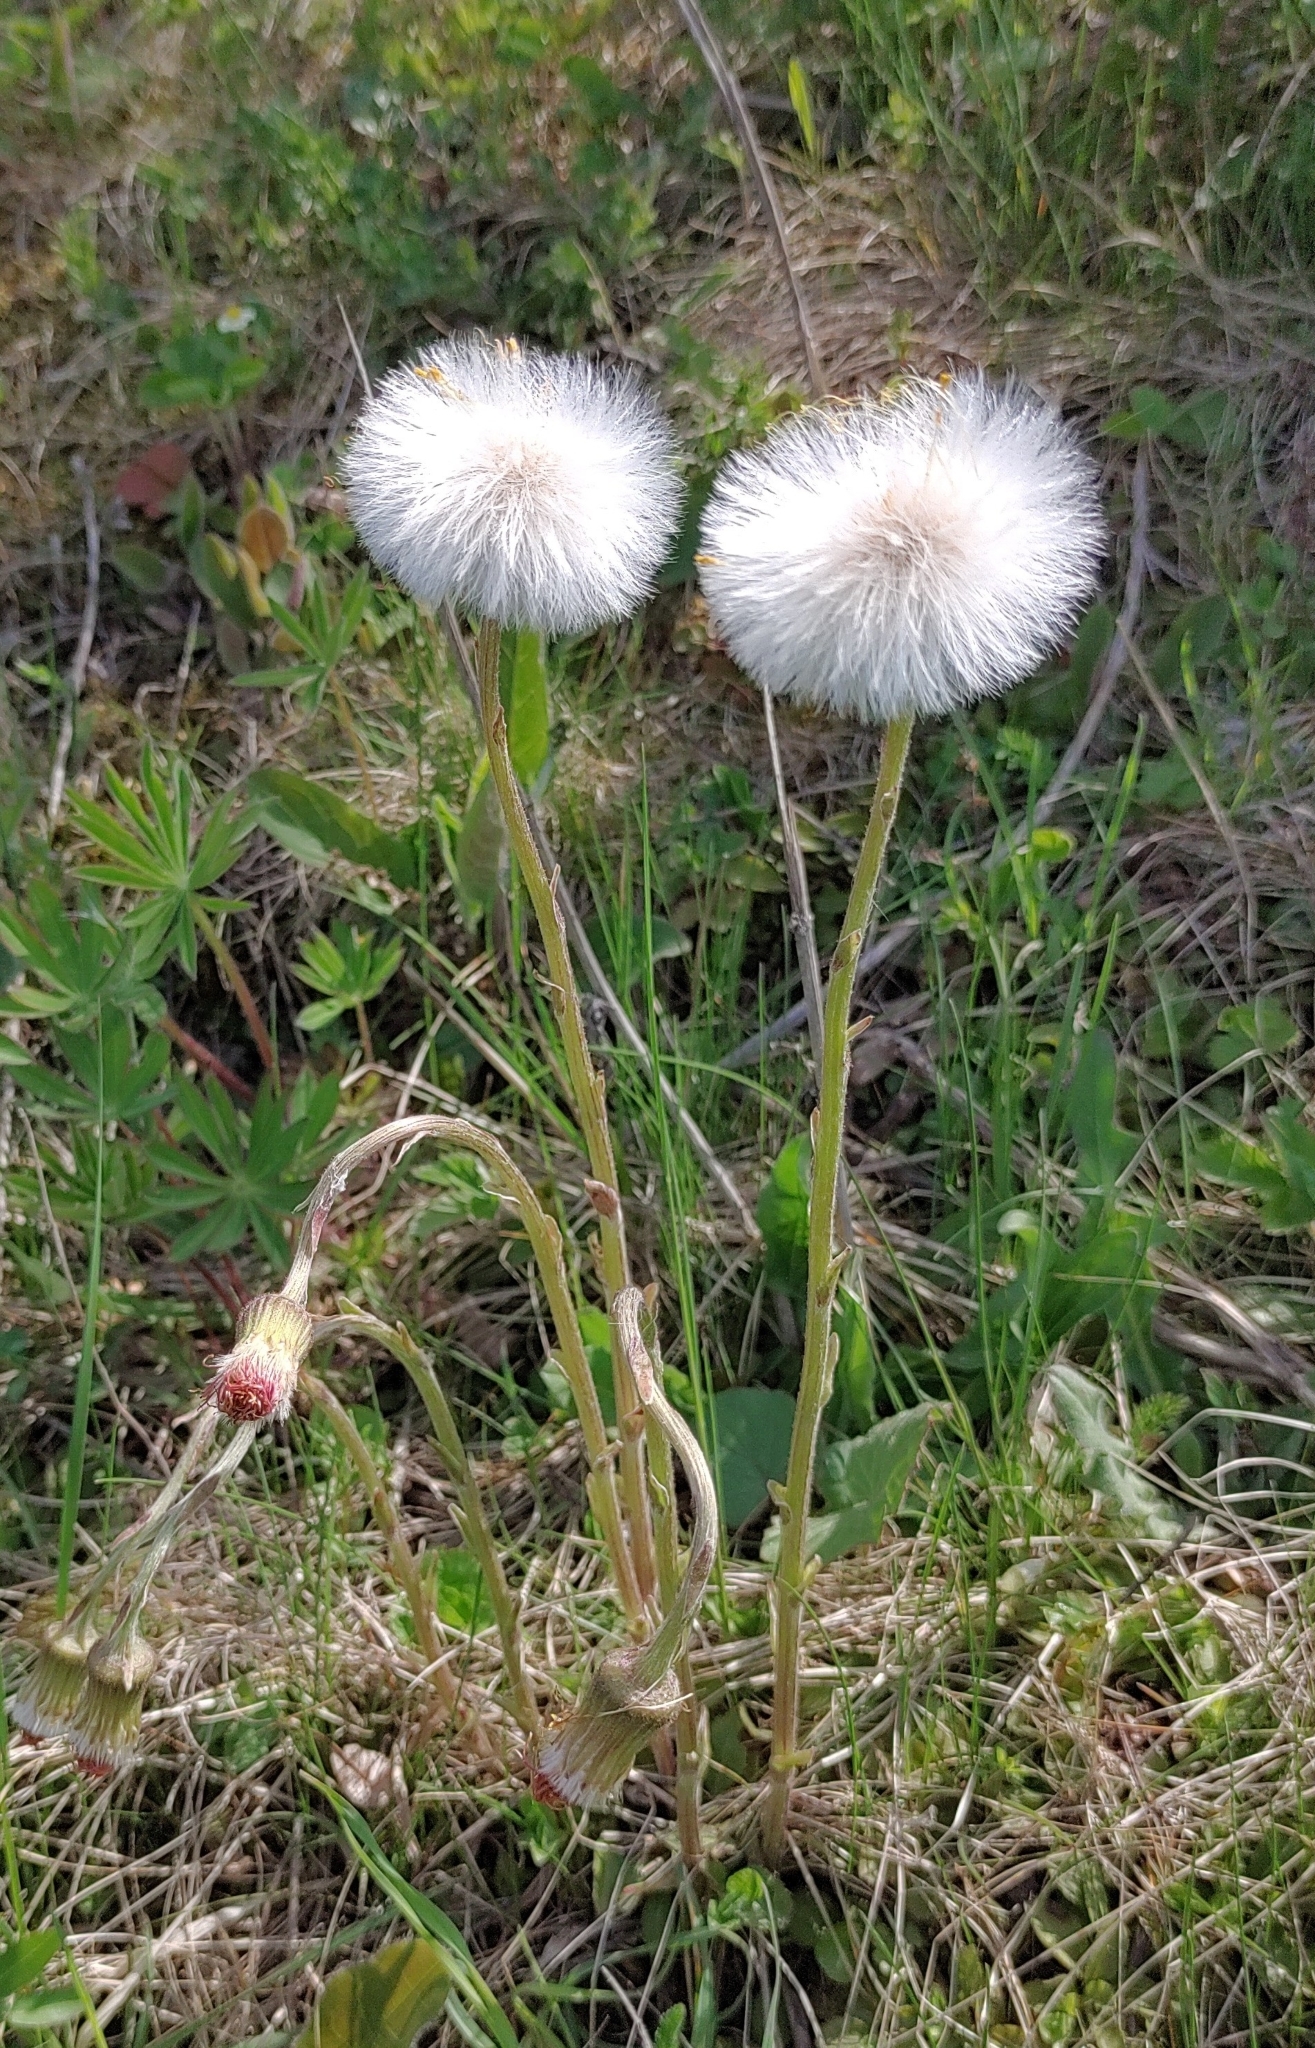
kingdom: Plantae
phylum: Tracheophyta
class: Magnoliopsida
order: Asterales
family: Asteraceae
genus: Tussilago
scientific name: Tussilago farfara
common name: Coltsfoot
